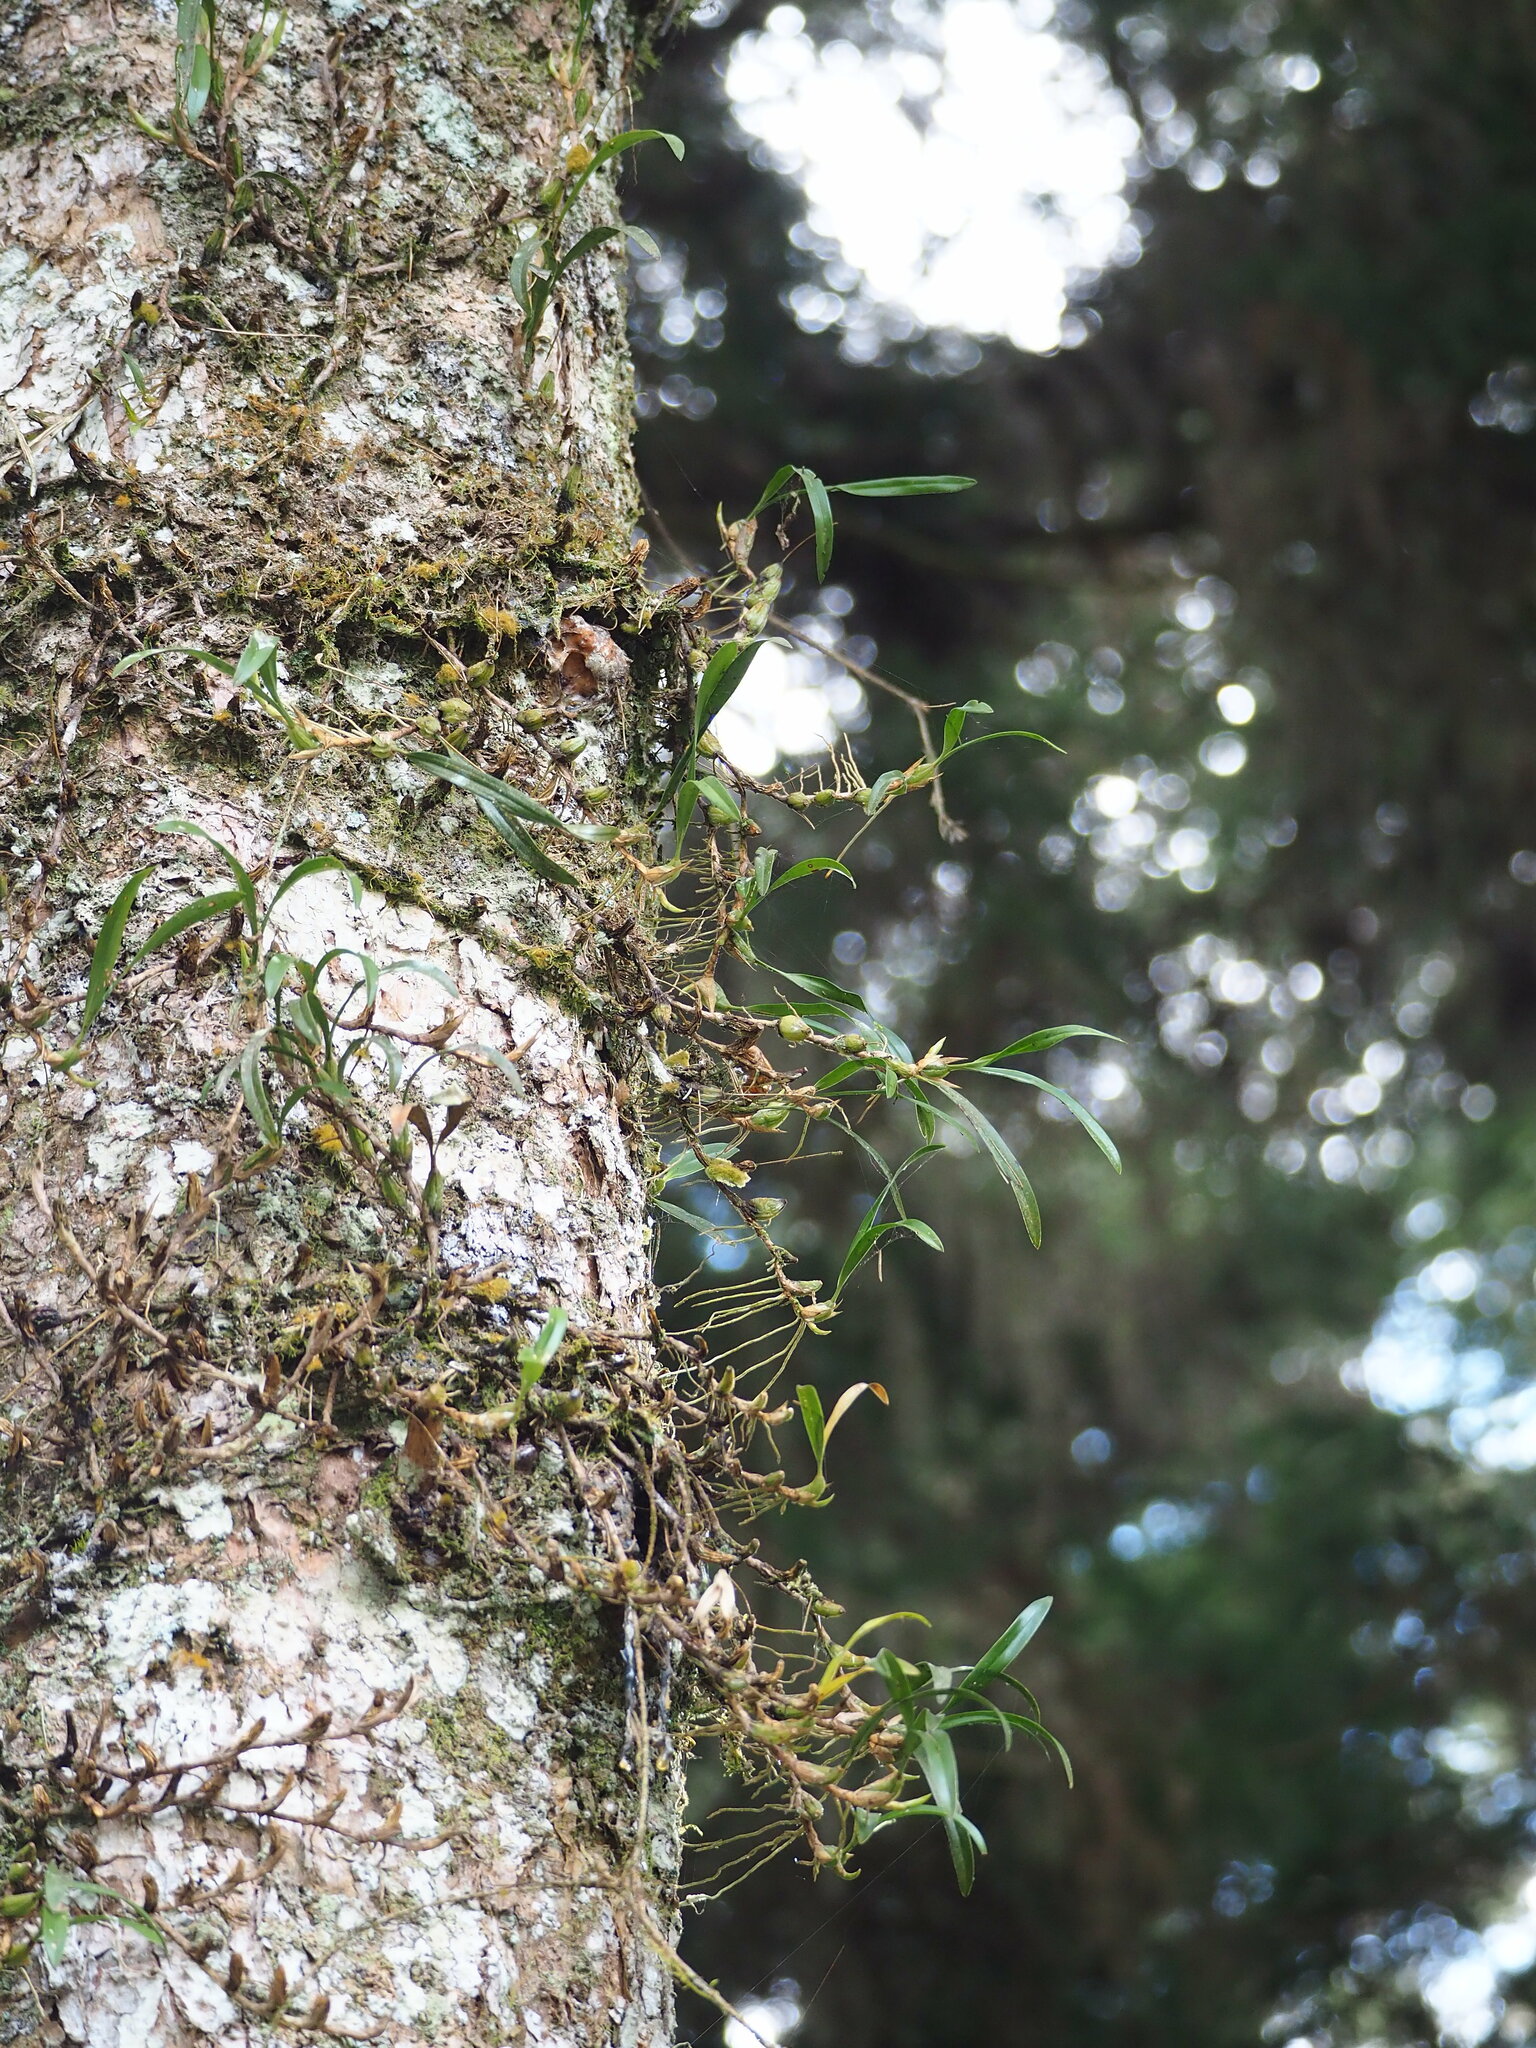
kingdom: Plantae
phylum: Tracheophyta
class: Liliopsida
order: Asparagales
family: Orchidaceae
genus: Coelogyne
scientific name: Coelogyne cantonensis
